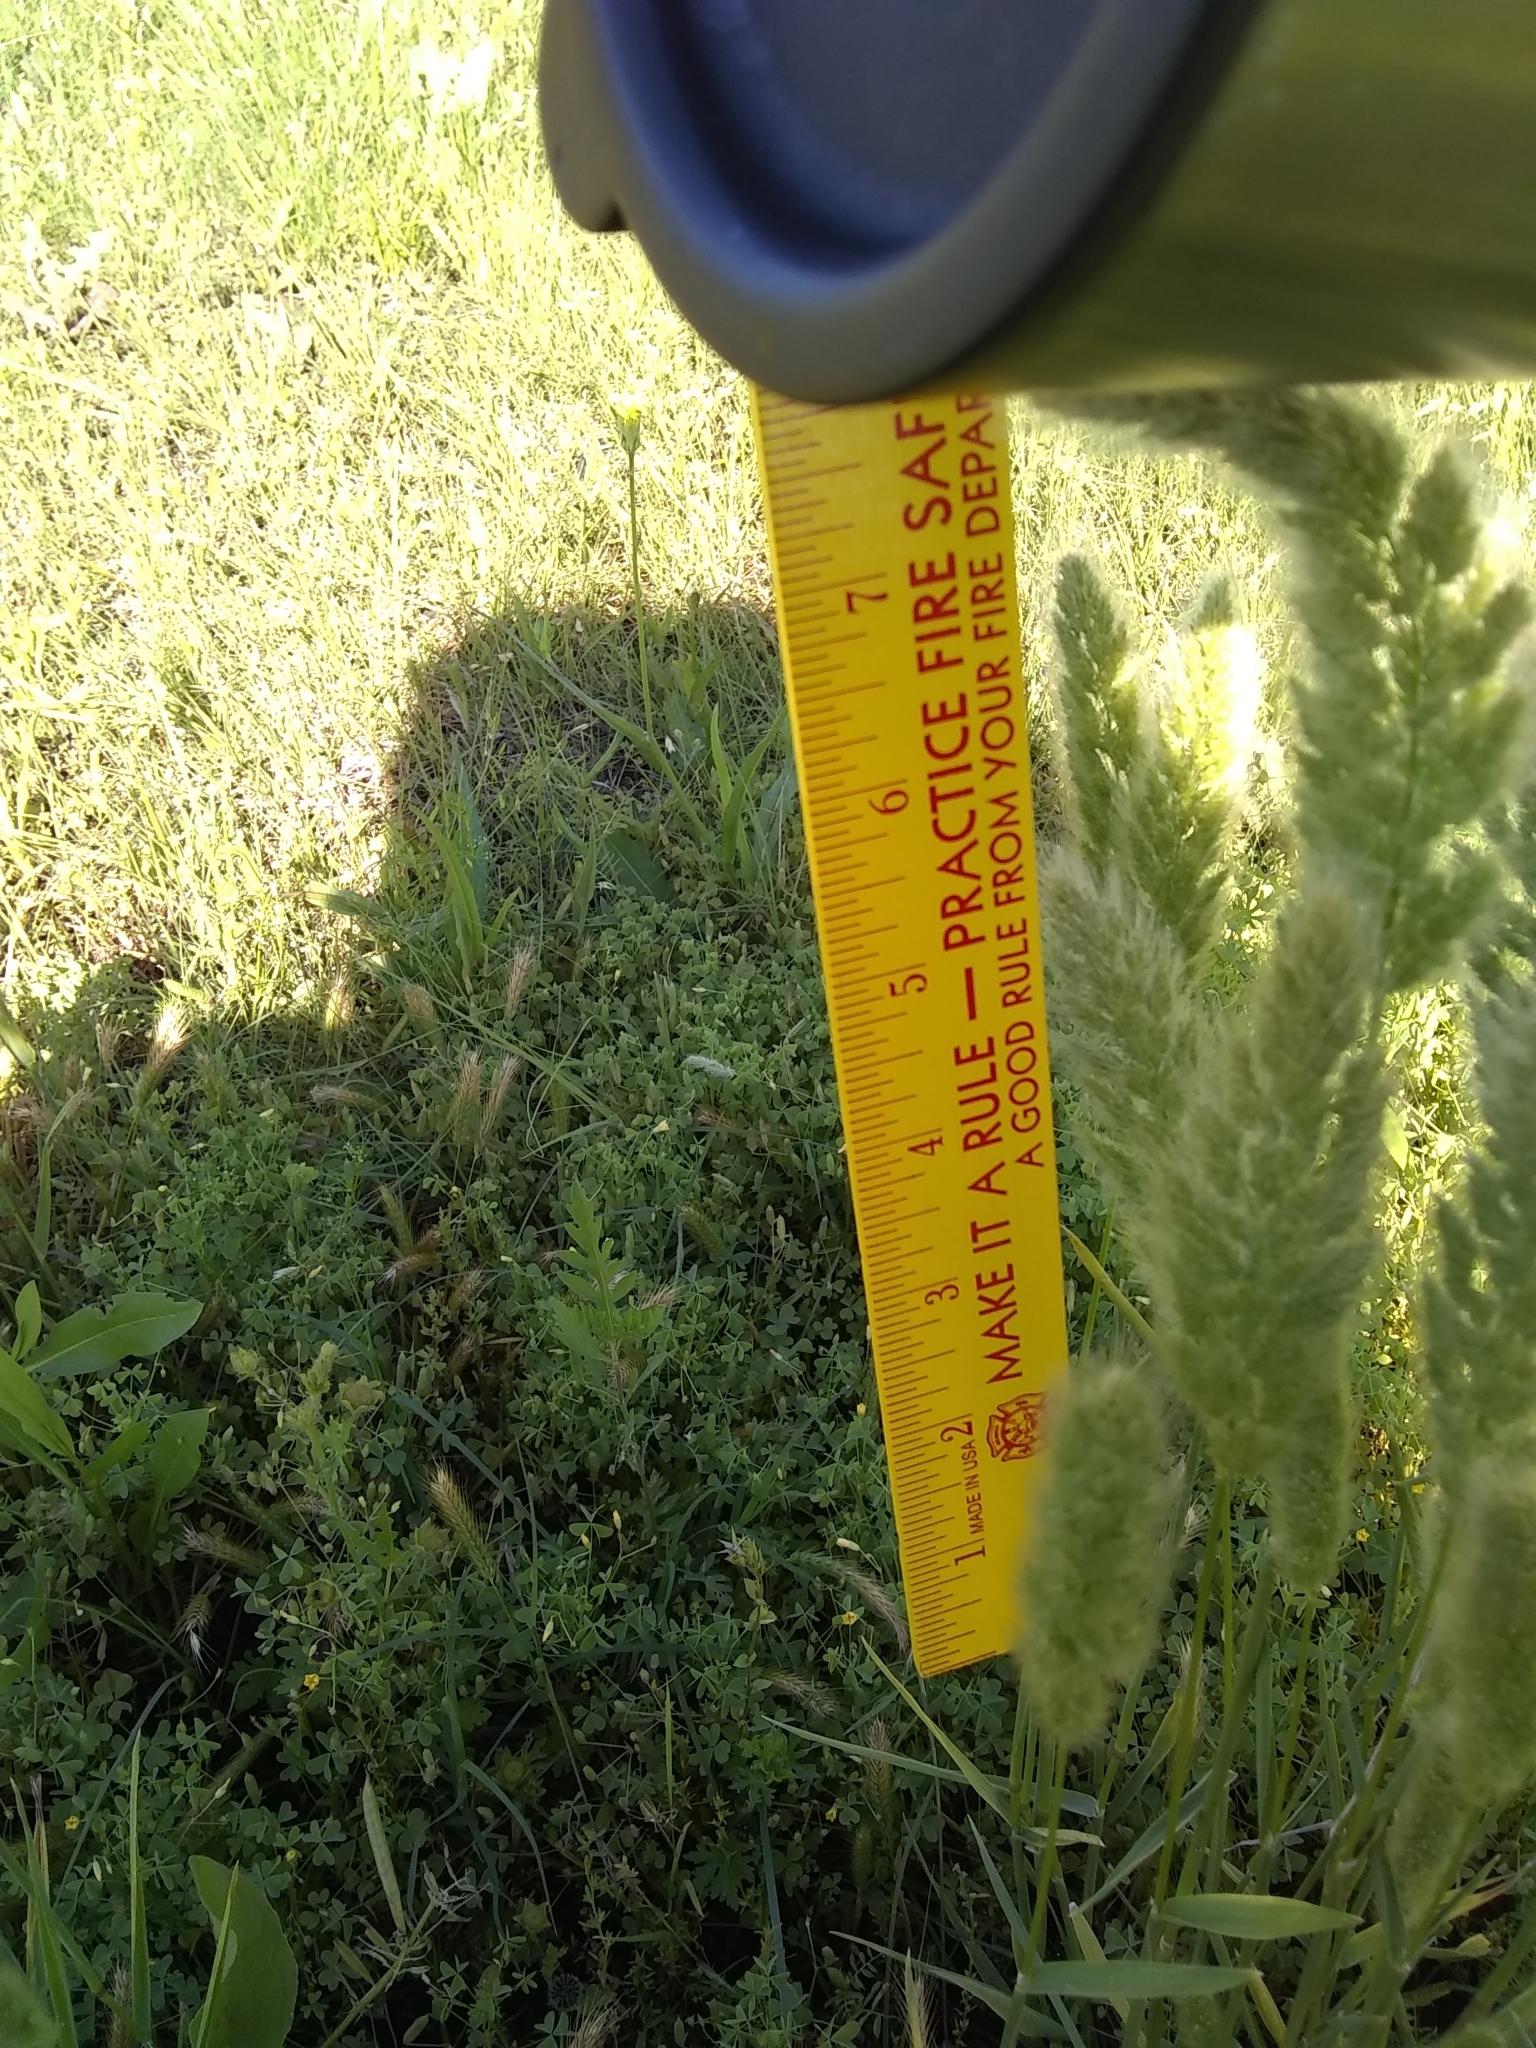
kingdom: Plantae
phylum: Tracheophyta
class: Liliopsida
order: Poales
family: Poaceae
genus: Polypogon
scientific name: Polypogon monspeliensis
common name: Annual rabbitsfoot grass
